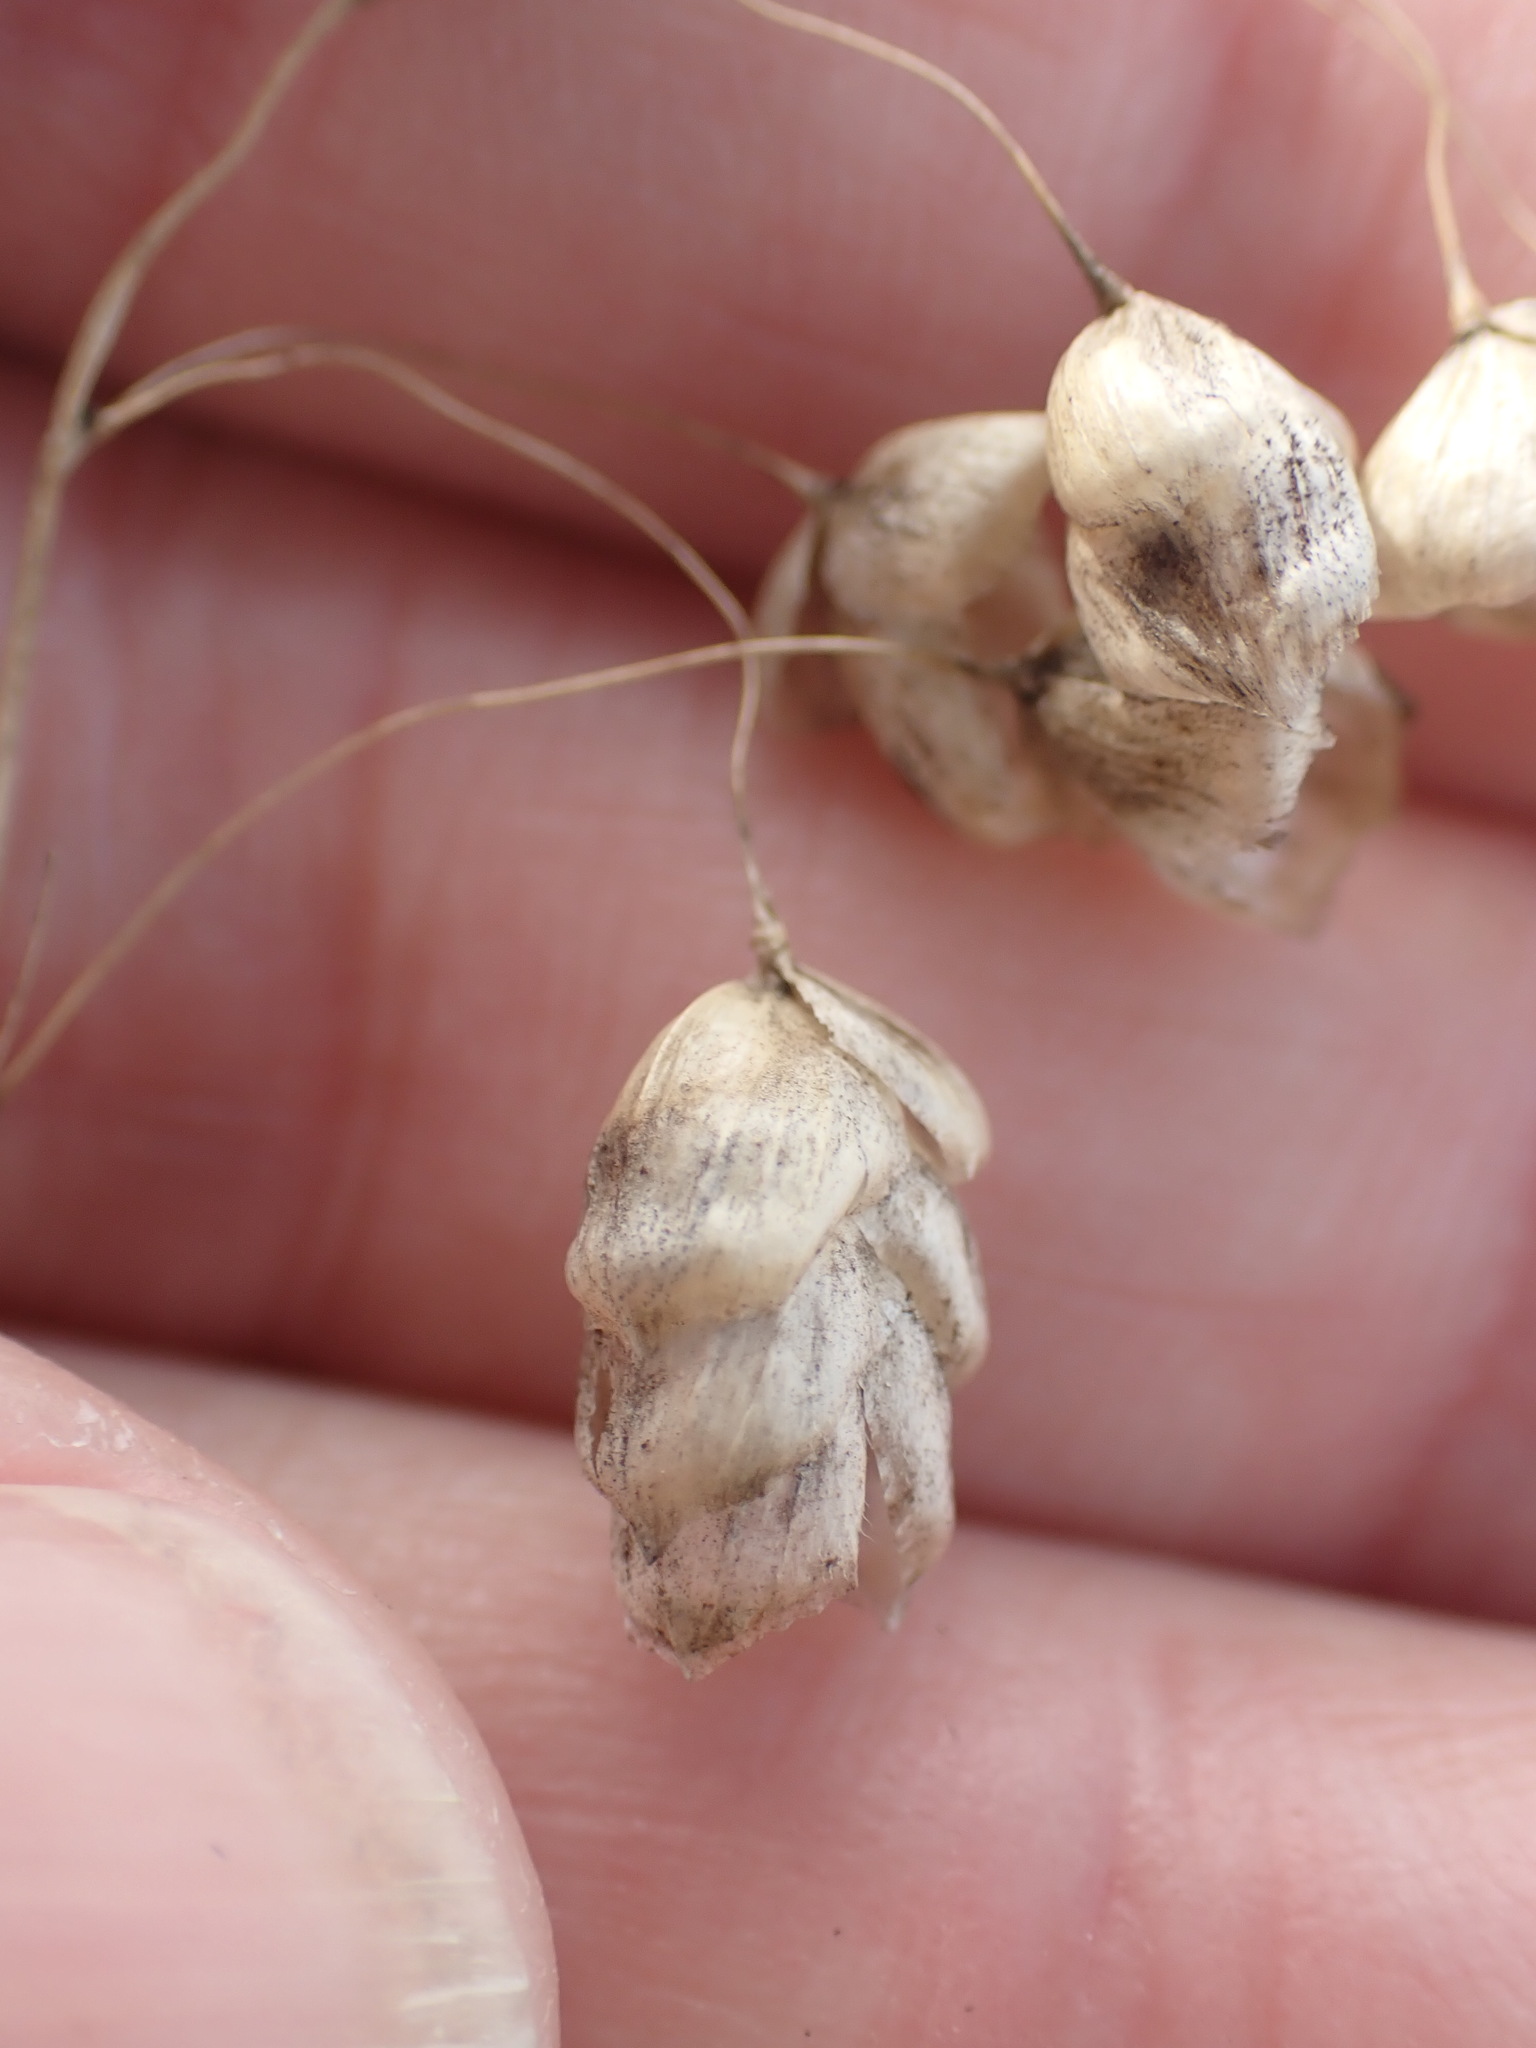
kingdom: Plantae
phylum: Tracheophyta
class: Liliopsida
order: Poales
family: Poaceae
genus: Briza
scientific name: Briza maxima
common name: Big quakinggrass
